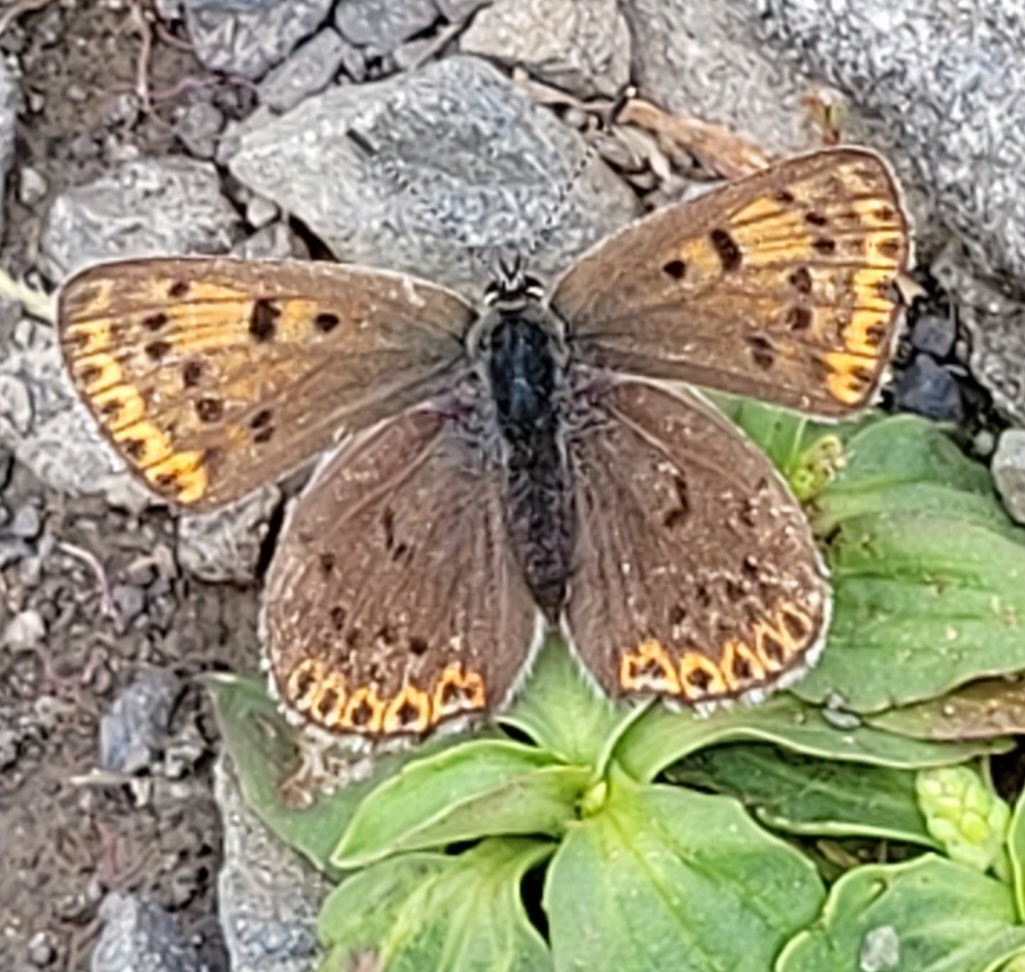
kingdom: Animalia
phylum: Arthropoda
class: Insecta
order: Lepidoptera
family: Lycaenidae
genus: Loweia
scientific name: Loweia tityrus
